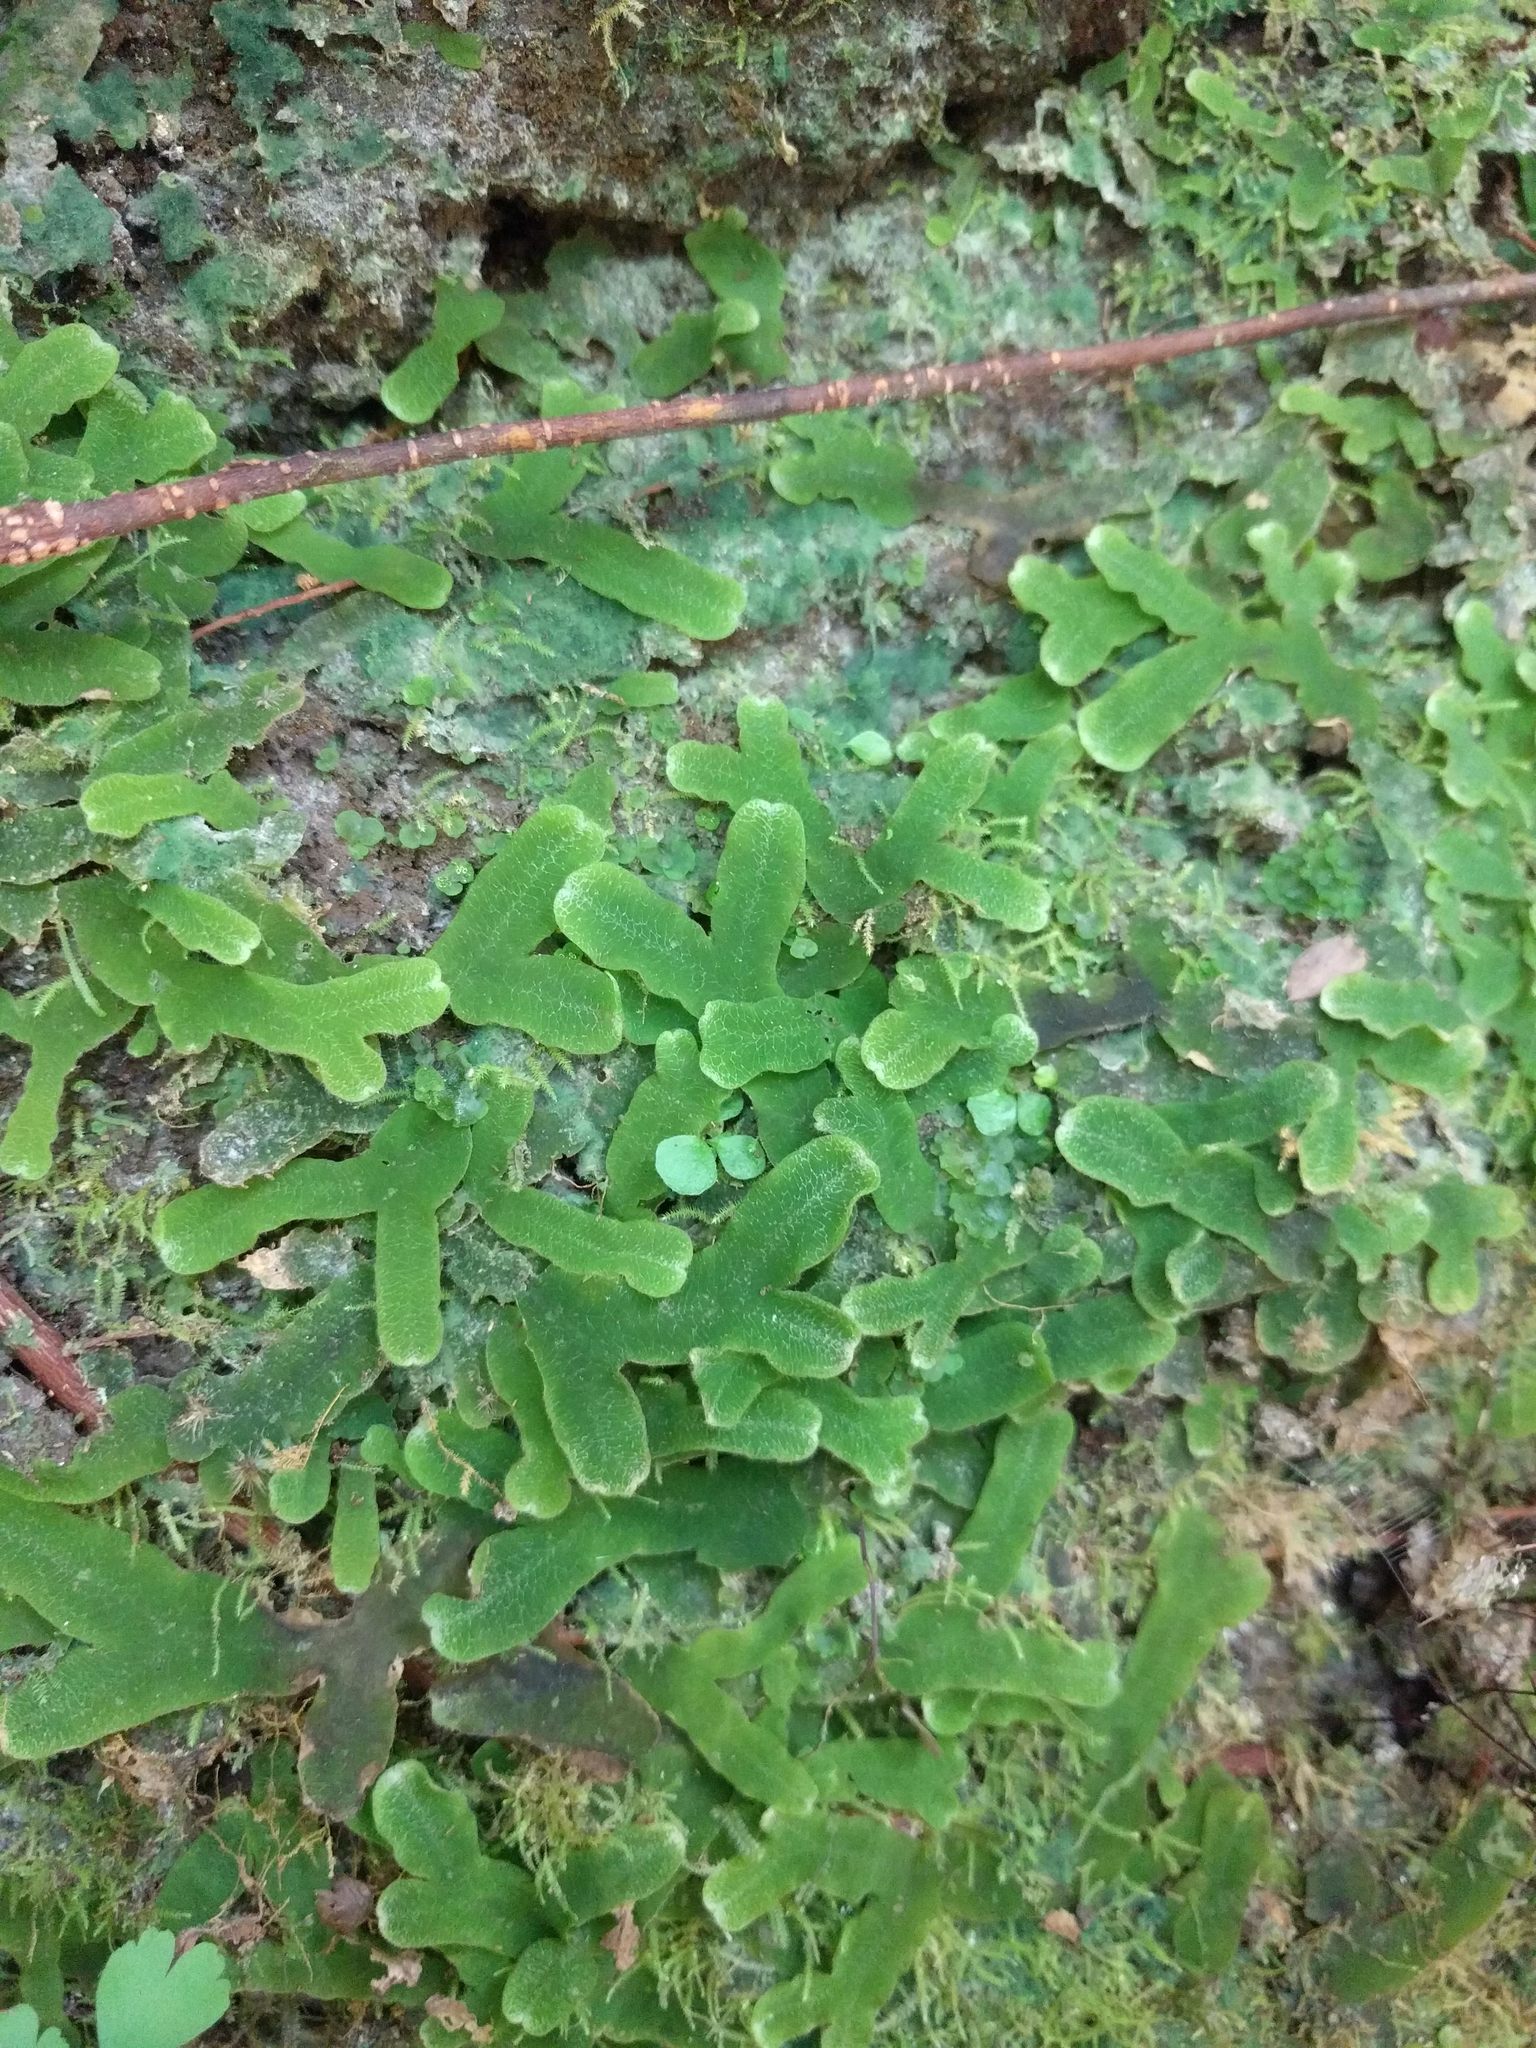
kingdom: Plantae
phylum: Marchantiophyta
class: Marchantiopsida
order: Marchantiales
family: Dumortieraceae
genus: Dumortiera
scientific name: Dumortiera hirsuta
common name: Dumortier's liverwort
